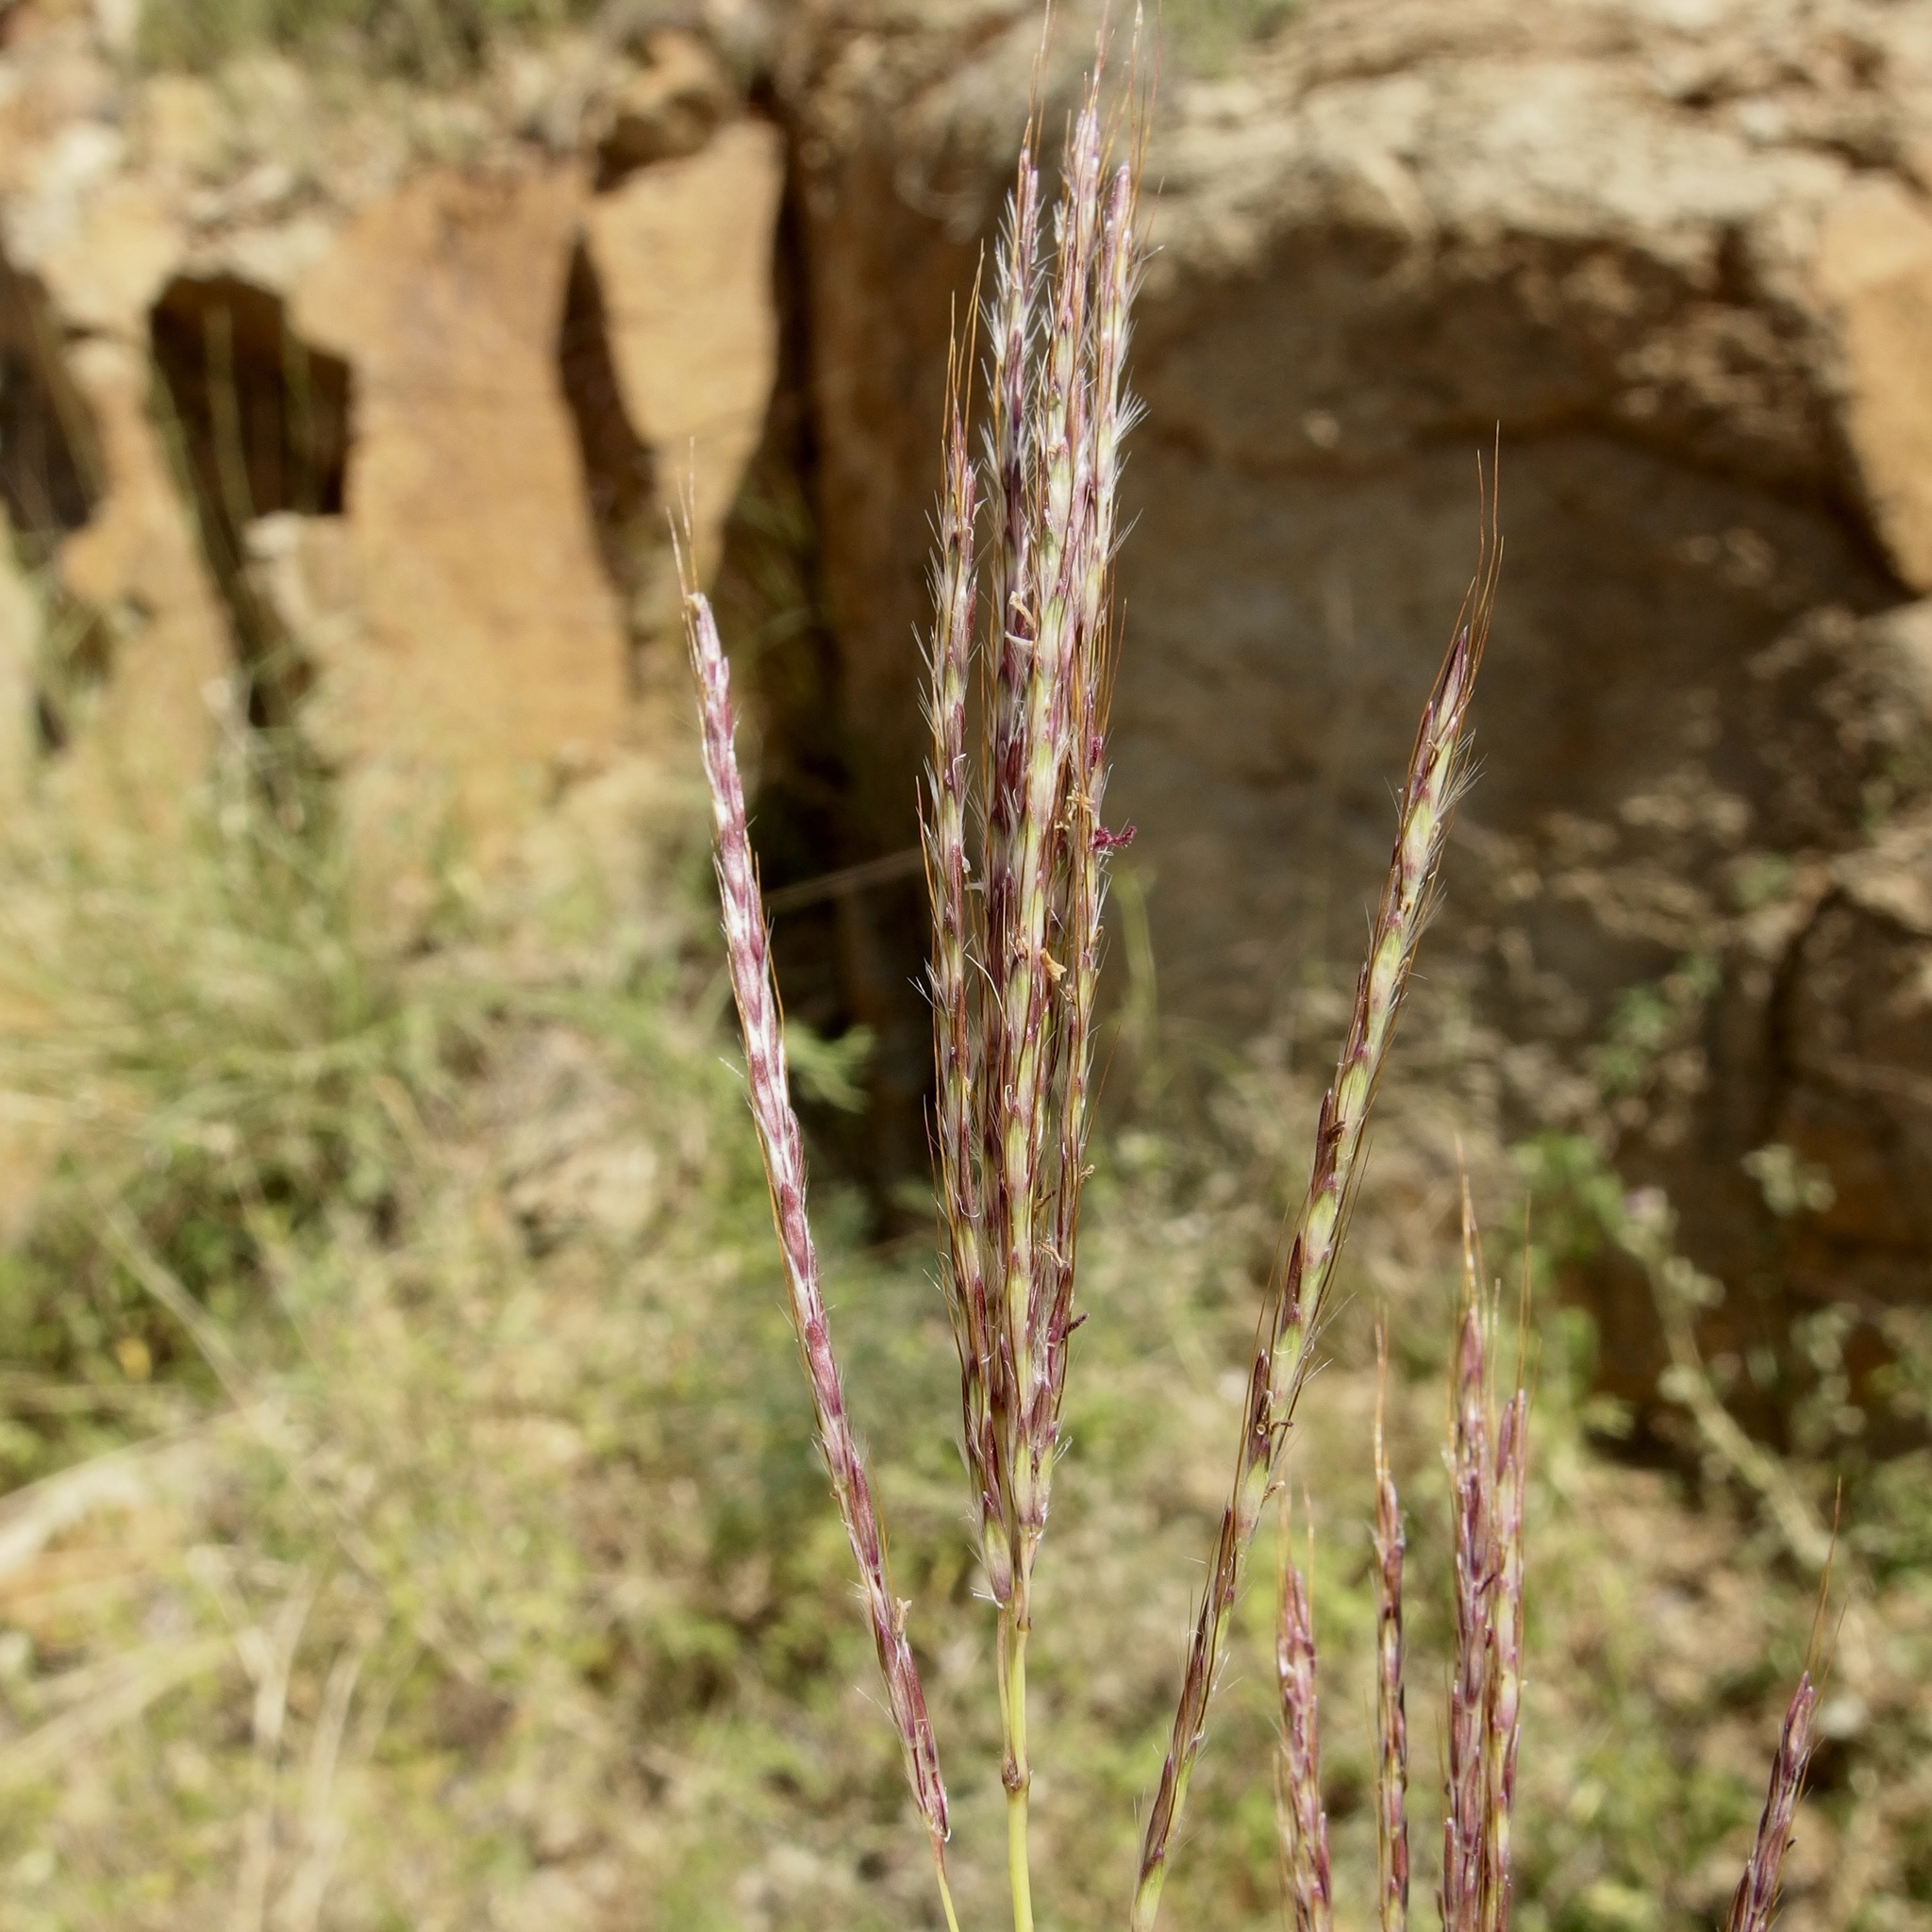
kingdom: Plantae
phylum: Tracheophyta
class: Liliopsida
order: Poales
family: Poaceae
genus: Bothriochloa
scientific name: Bothriochloa ischaemum
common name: Yellow bluestem
